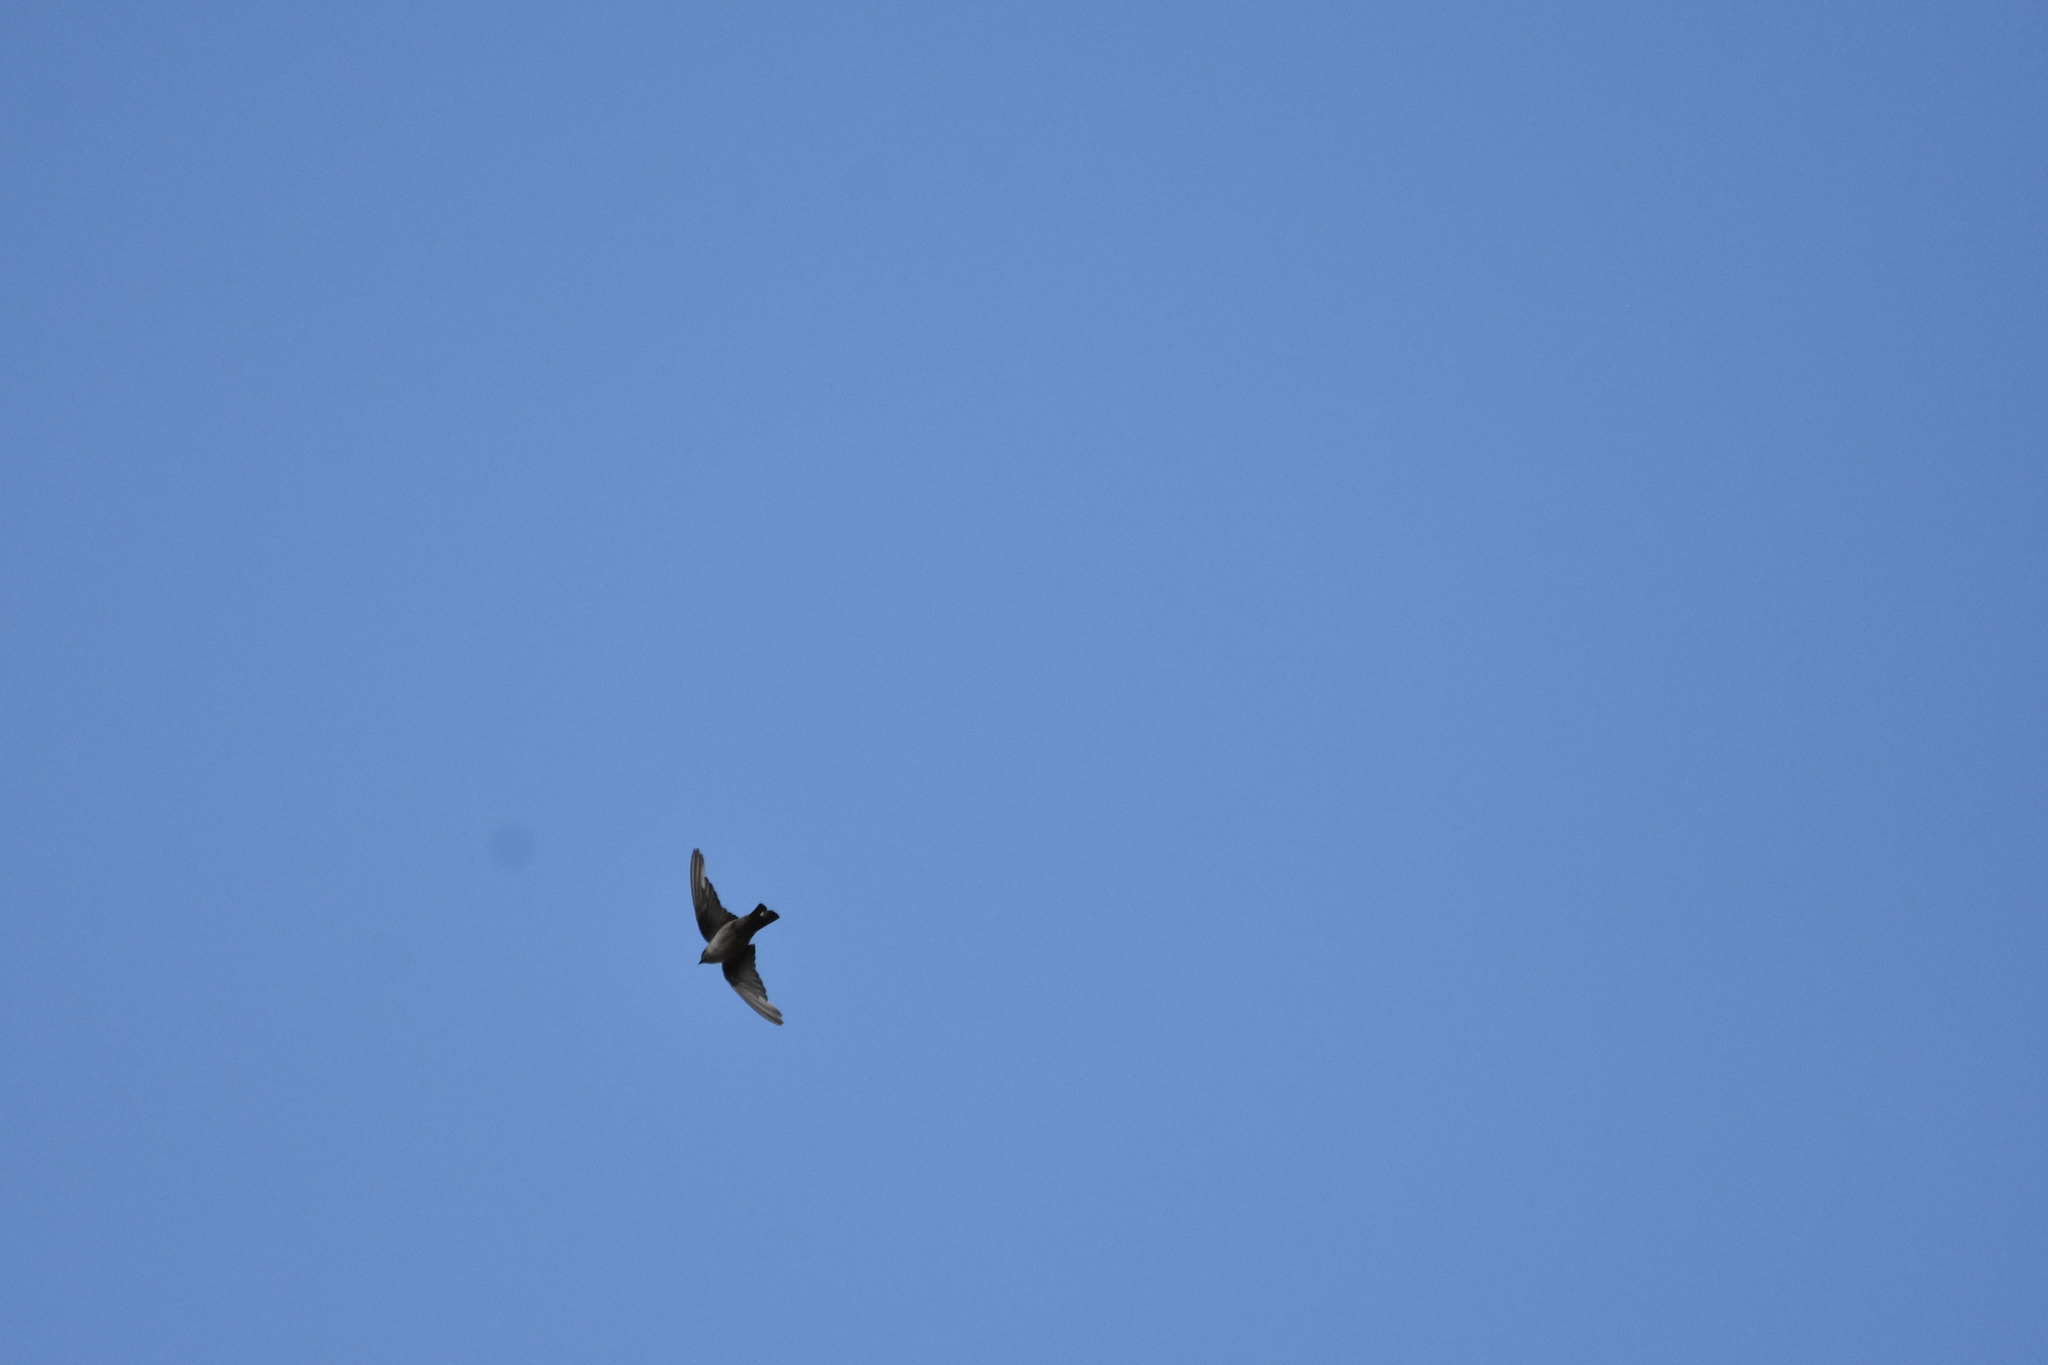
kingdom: Animalia
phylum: Chordata
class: Aves
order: Passeriformes
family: Hirundinidae
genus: Ptyonoprogne
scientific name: Ptyonoprogne rupestris
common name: Eurasian crag martin
